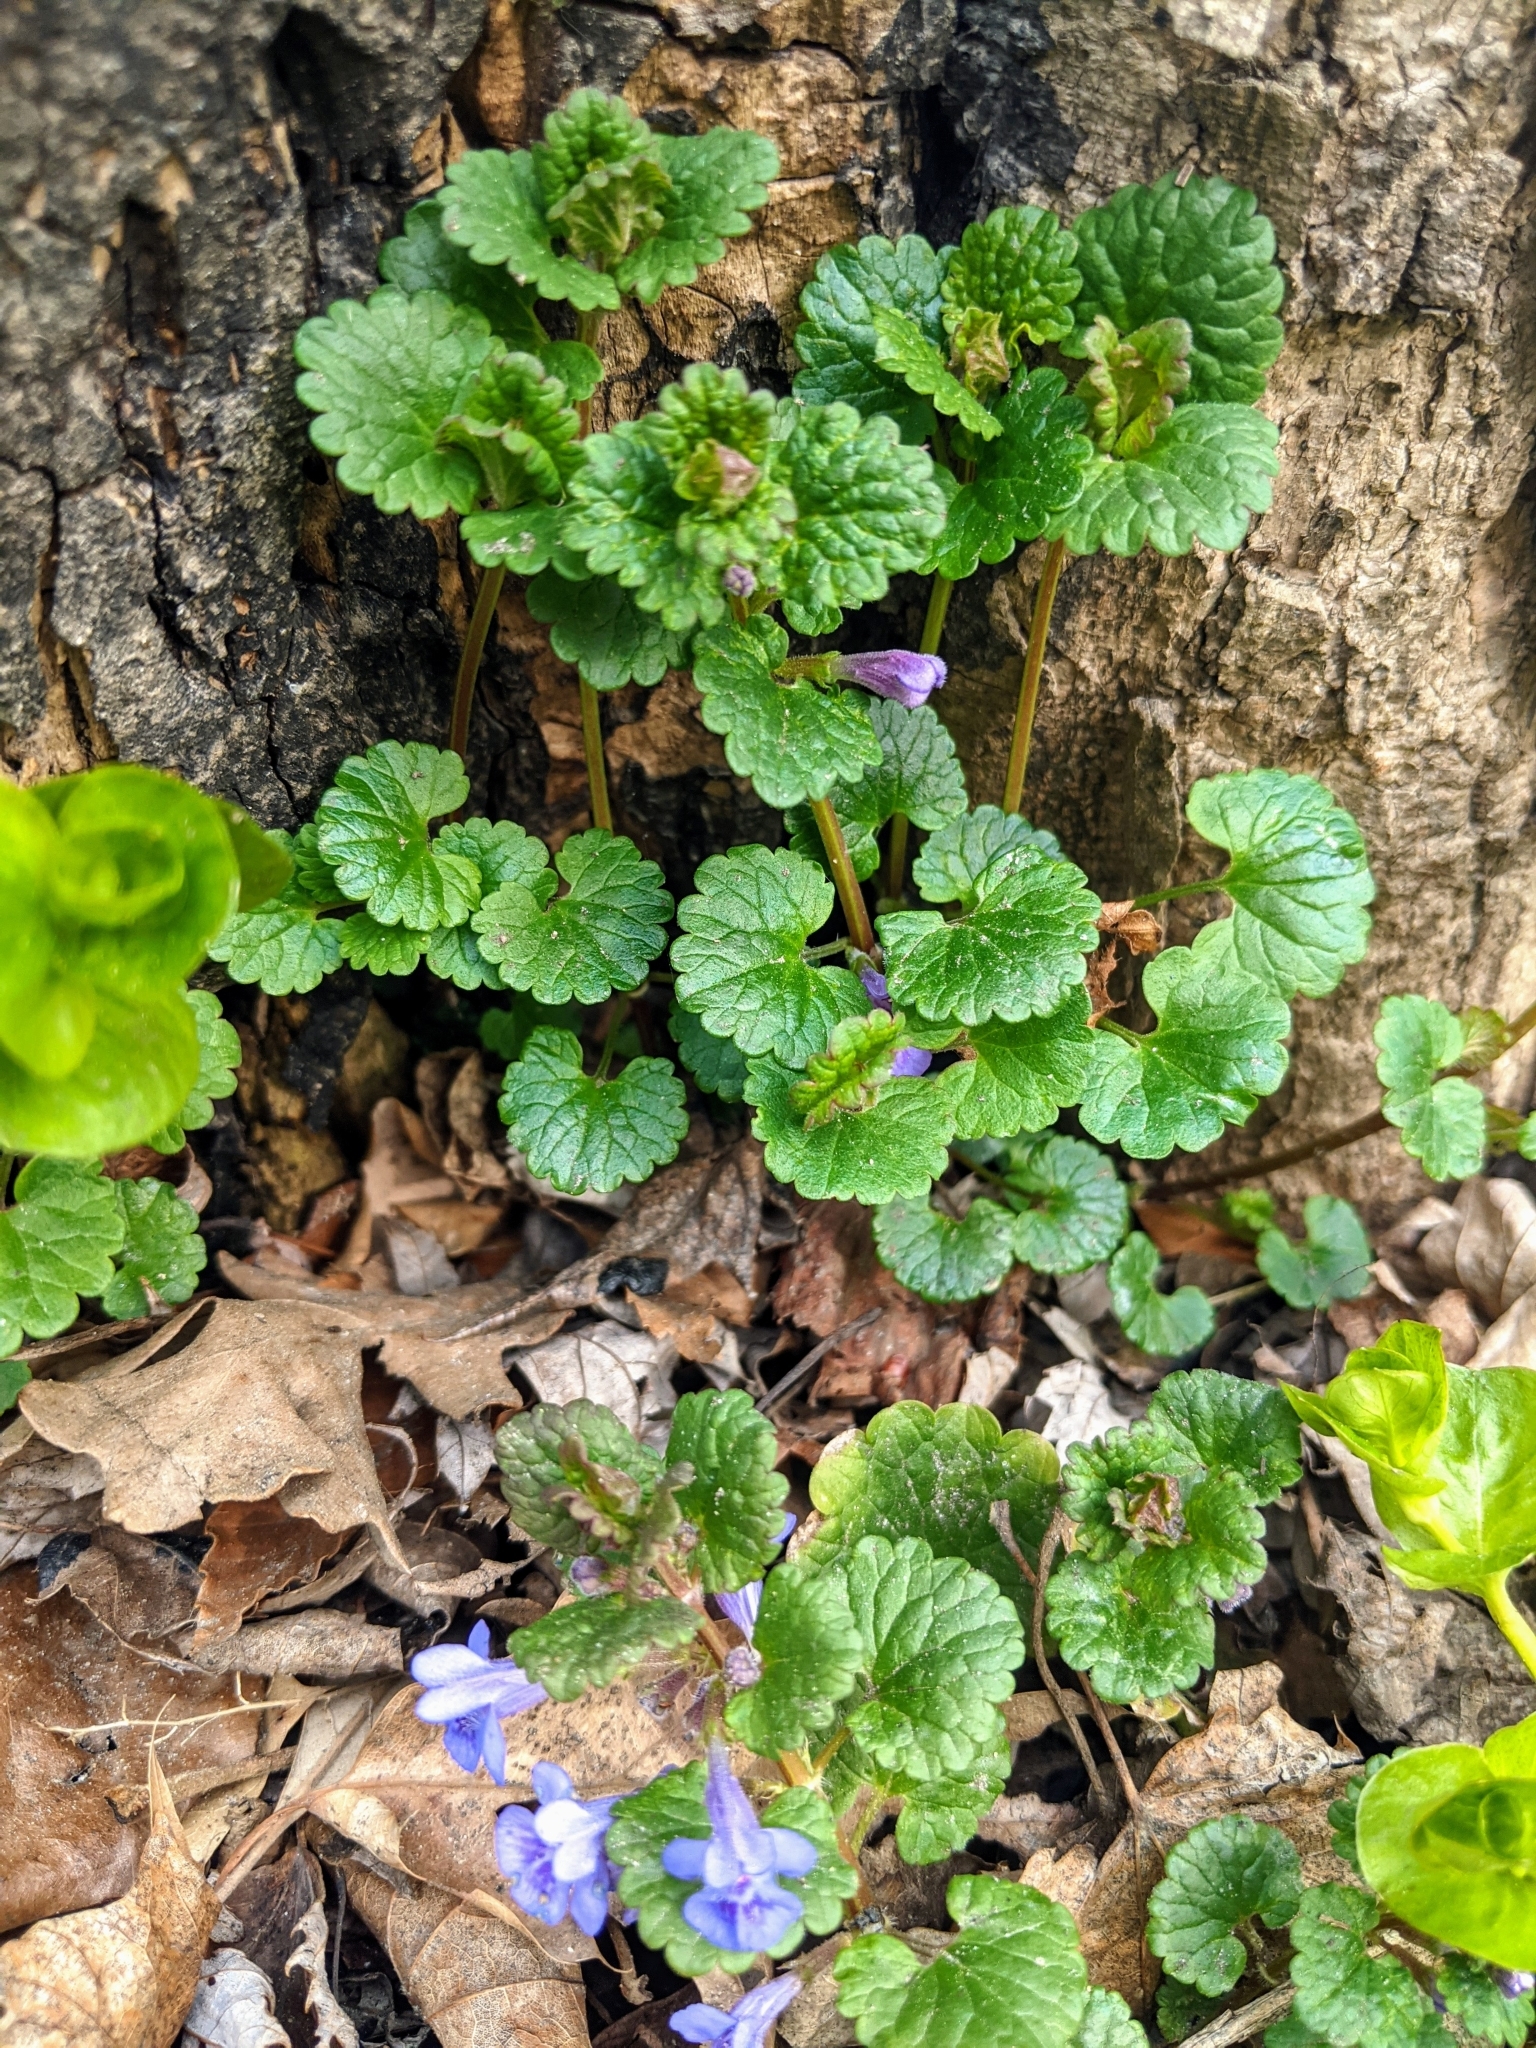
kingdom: Plantae
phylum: Tracheophyta
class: Magnoliopsida
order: Lamiales
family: Lamiaceae
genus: Glechoma
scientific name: Glechoma hederacea
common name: Ground ivy
